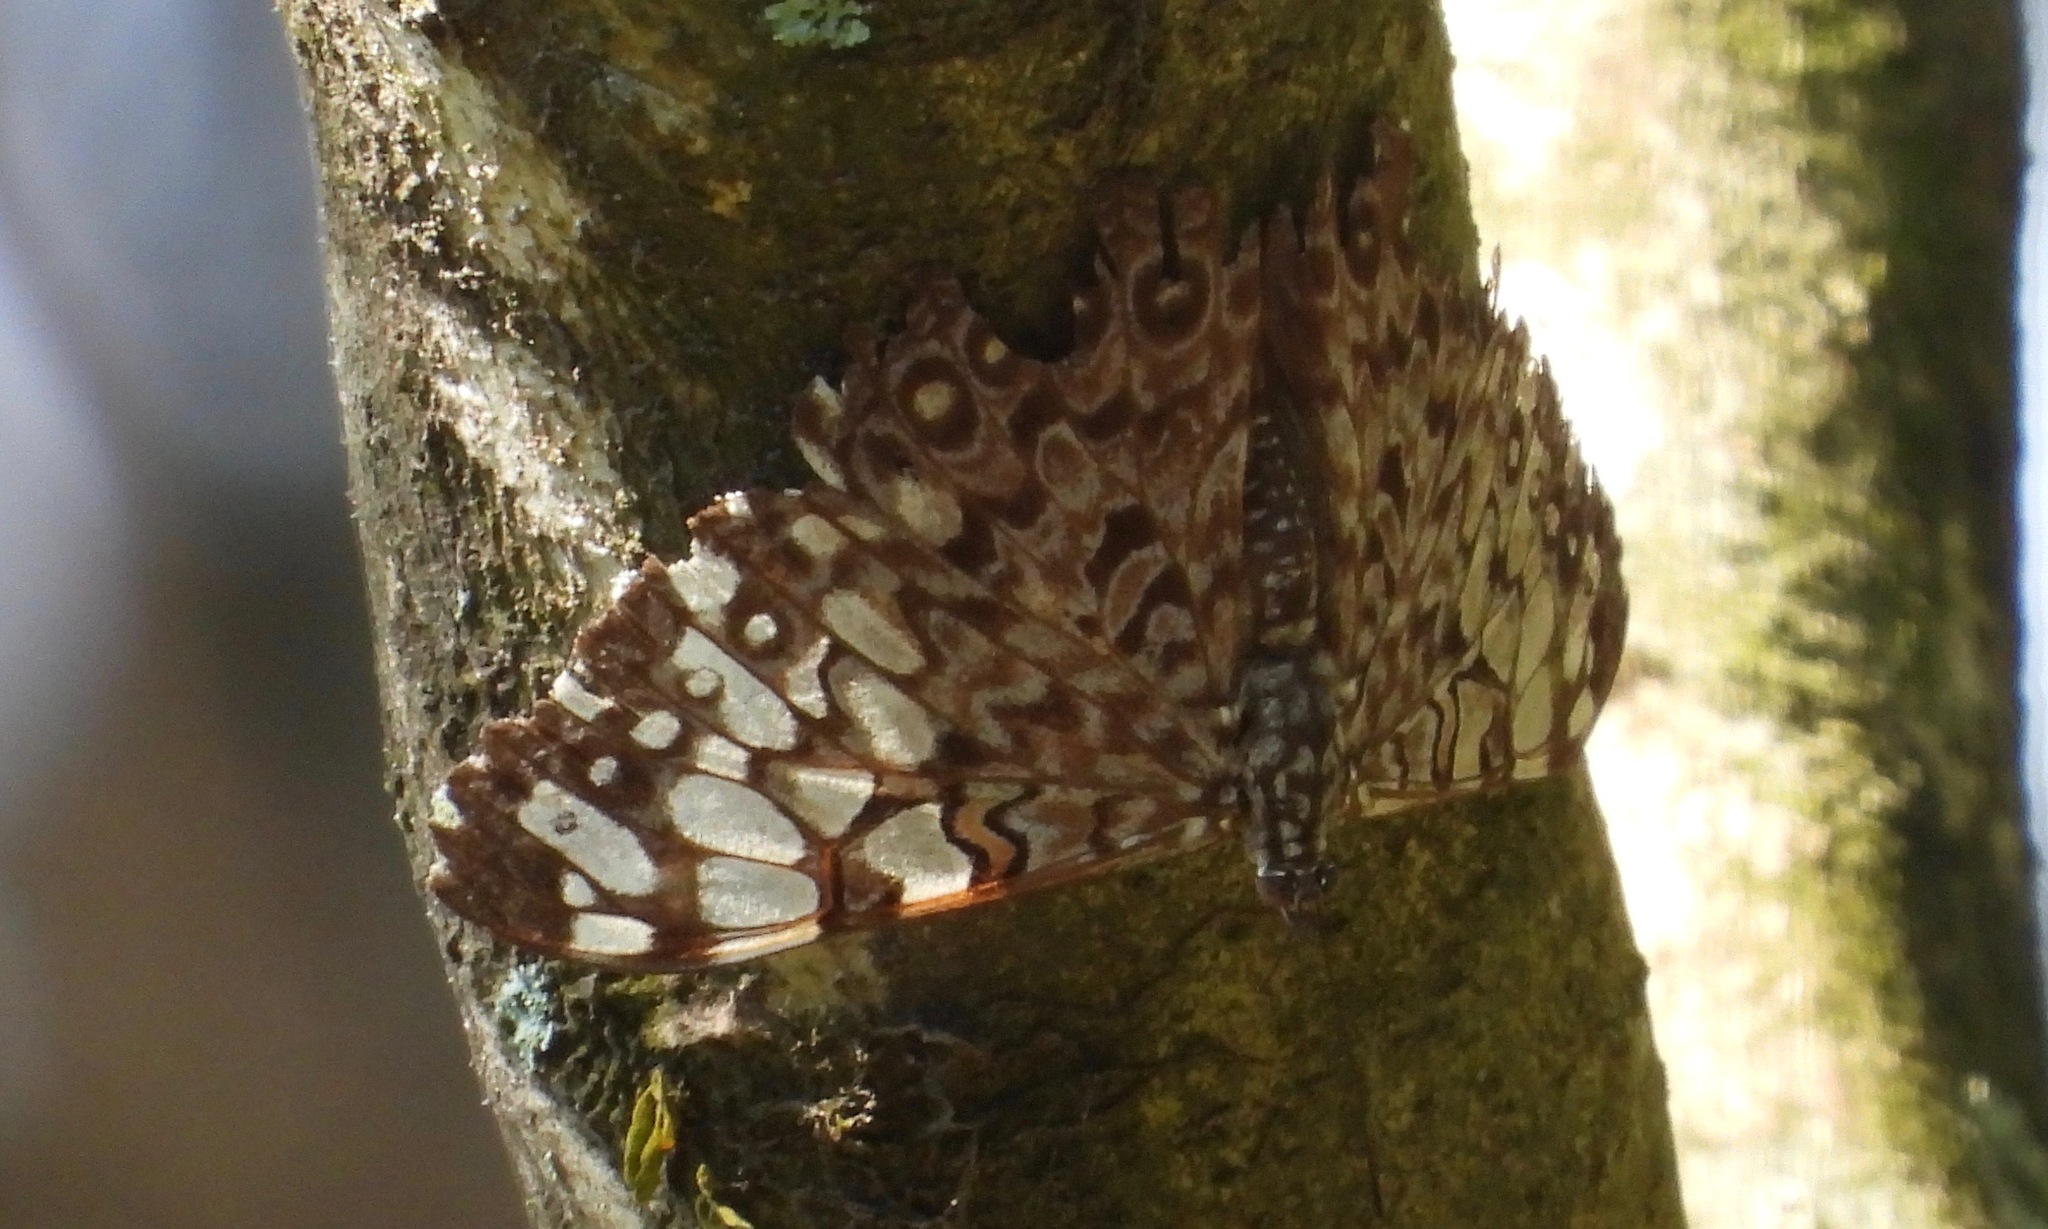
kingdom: Animalia
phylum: Arthropoda
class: Insecta
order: Lepidoptera
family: Nymphalidae
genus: Hamadryas
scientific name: Hamadryas feronia
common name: Variable cracker
